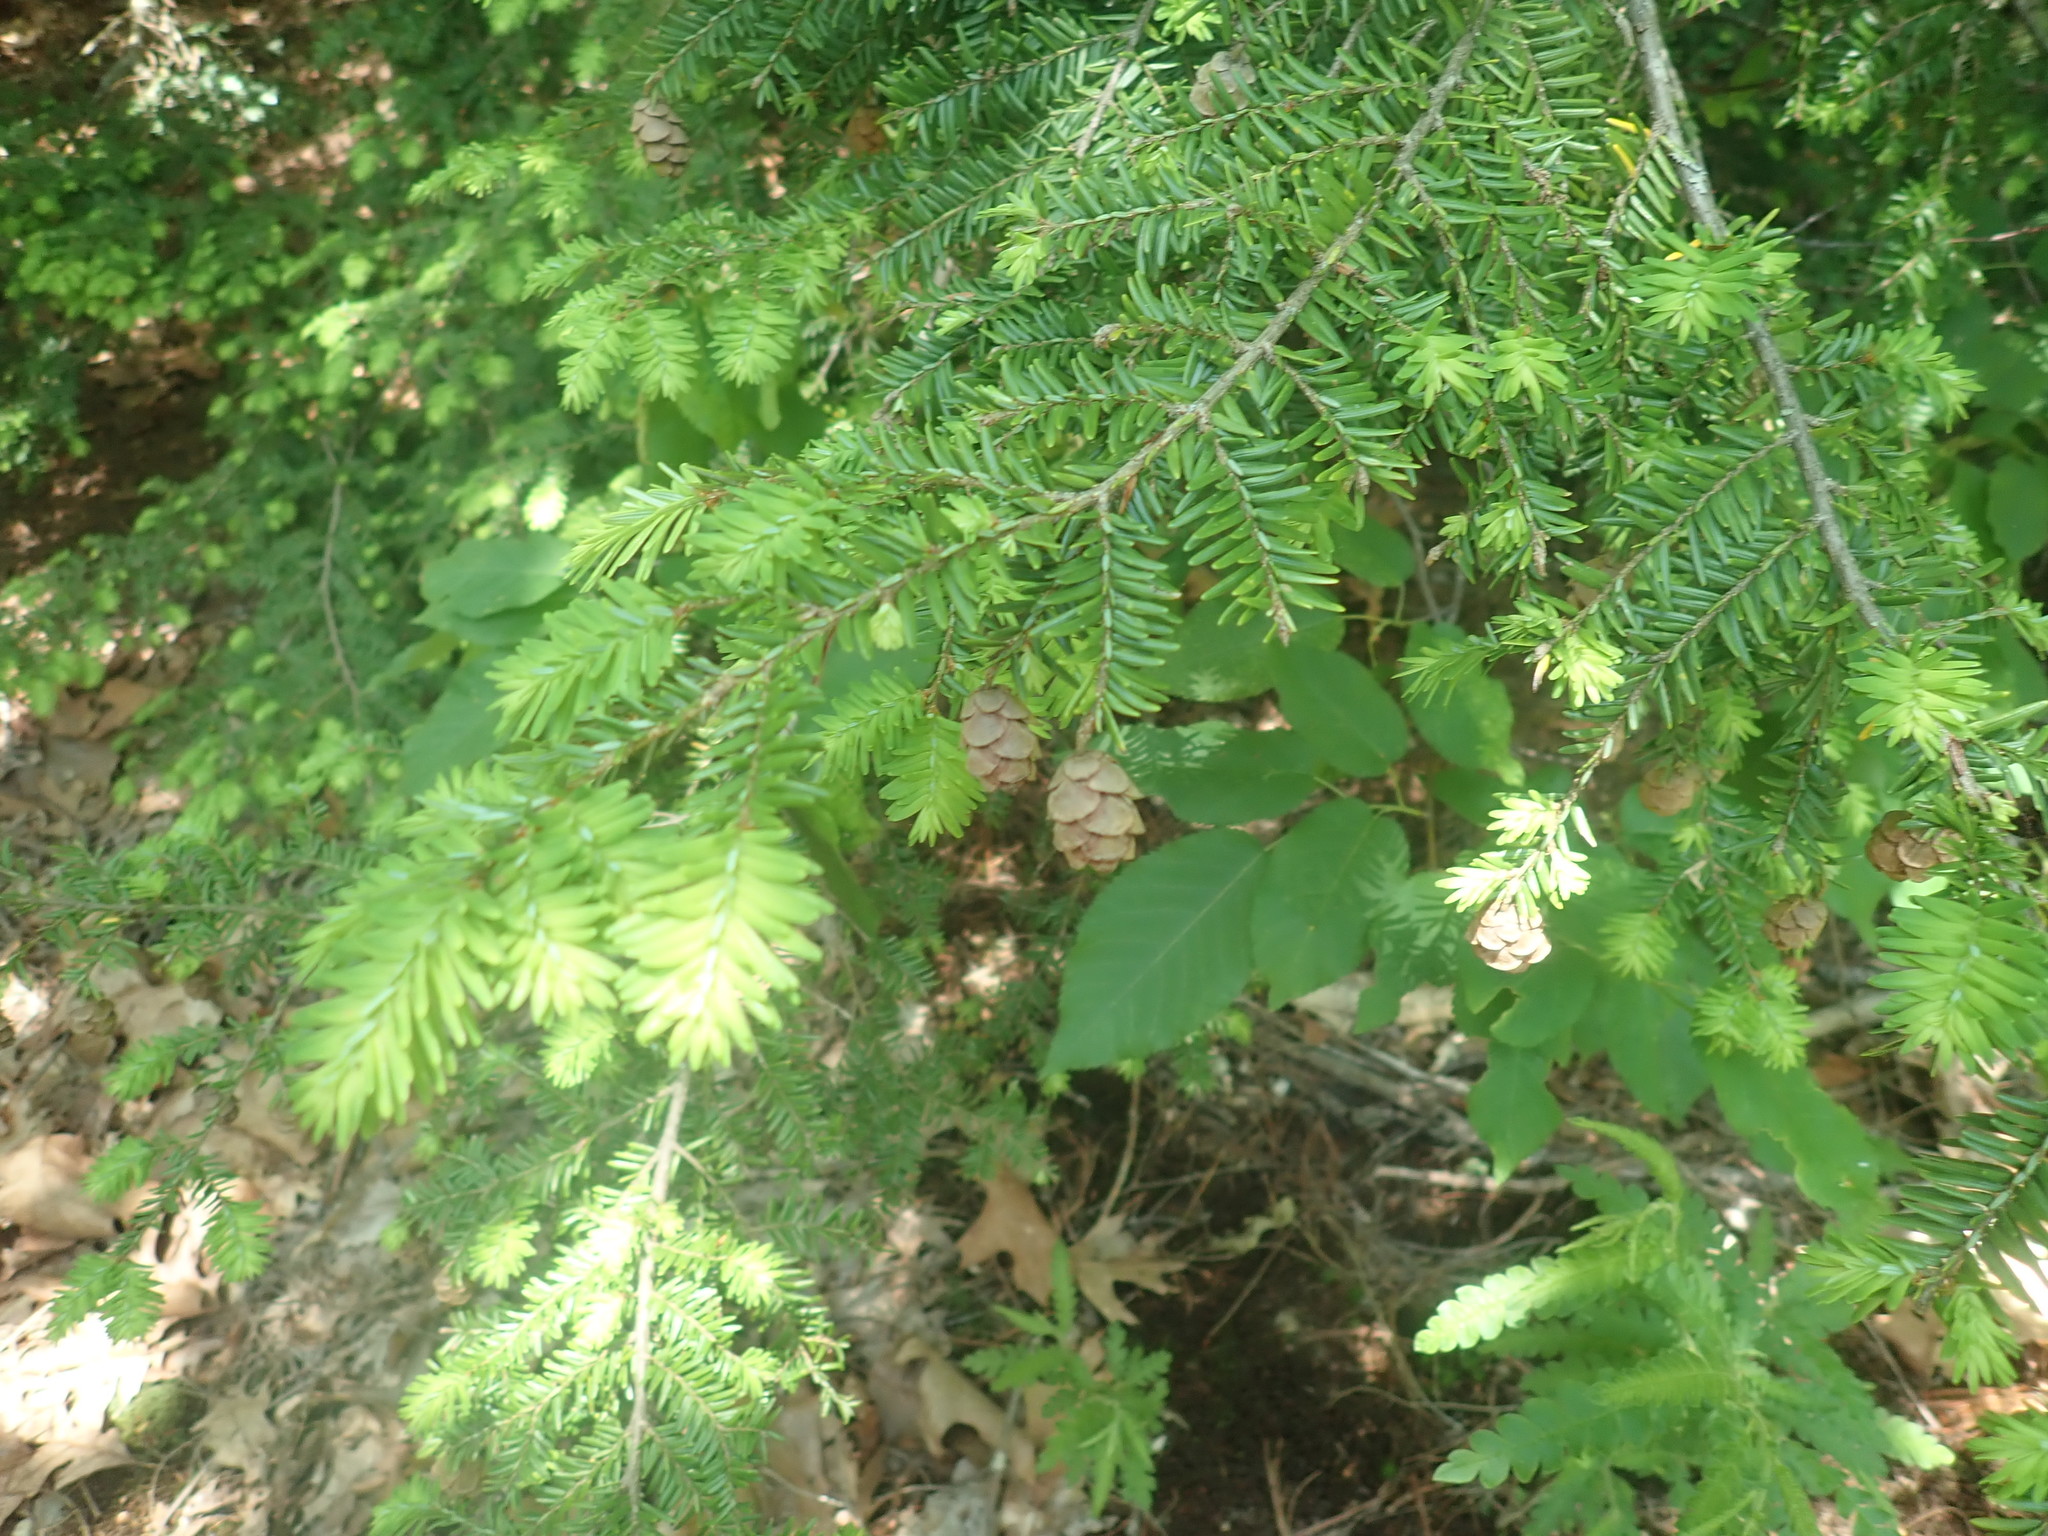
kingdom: Plantae
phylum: Tracheophyta
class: Pinopsida
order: Pinales
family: Pinaceae
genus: Tsuga
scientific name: Tsuga canadensis
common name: Eastern hemlock
